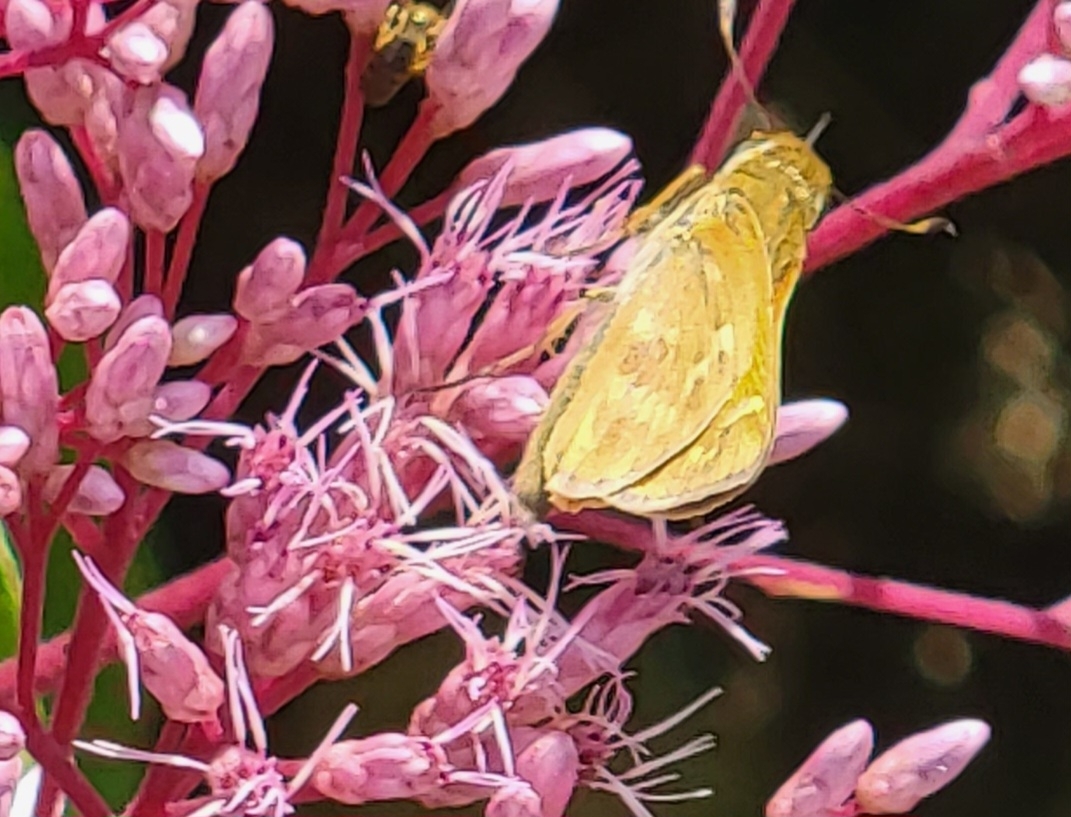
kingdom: Animalia
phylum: Arthropoda
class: Insecta
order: Lepidoptera
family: Hesperiidae
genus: Atalopedes
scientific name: Atalopedes
